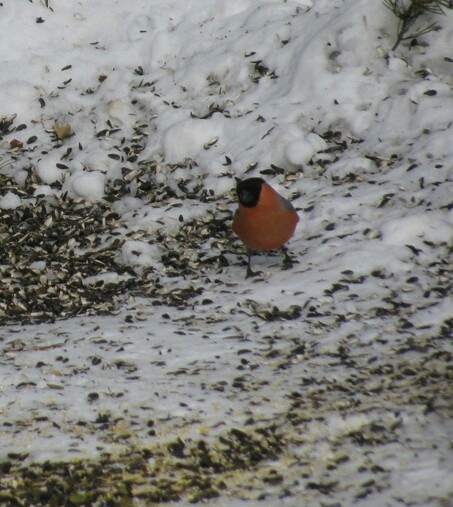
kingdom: Animalia
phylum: Chordata
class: Aves
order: Passeriformes
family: Fringillidae
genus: Pyrrhula
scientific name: Pyrrhula pyrrhula
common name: Eurasian bullfinch
